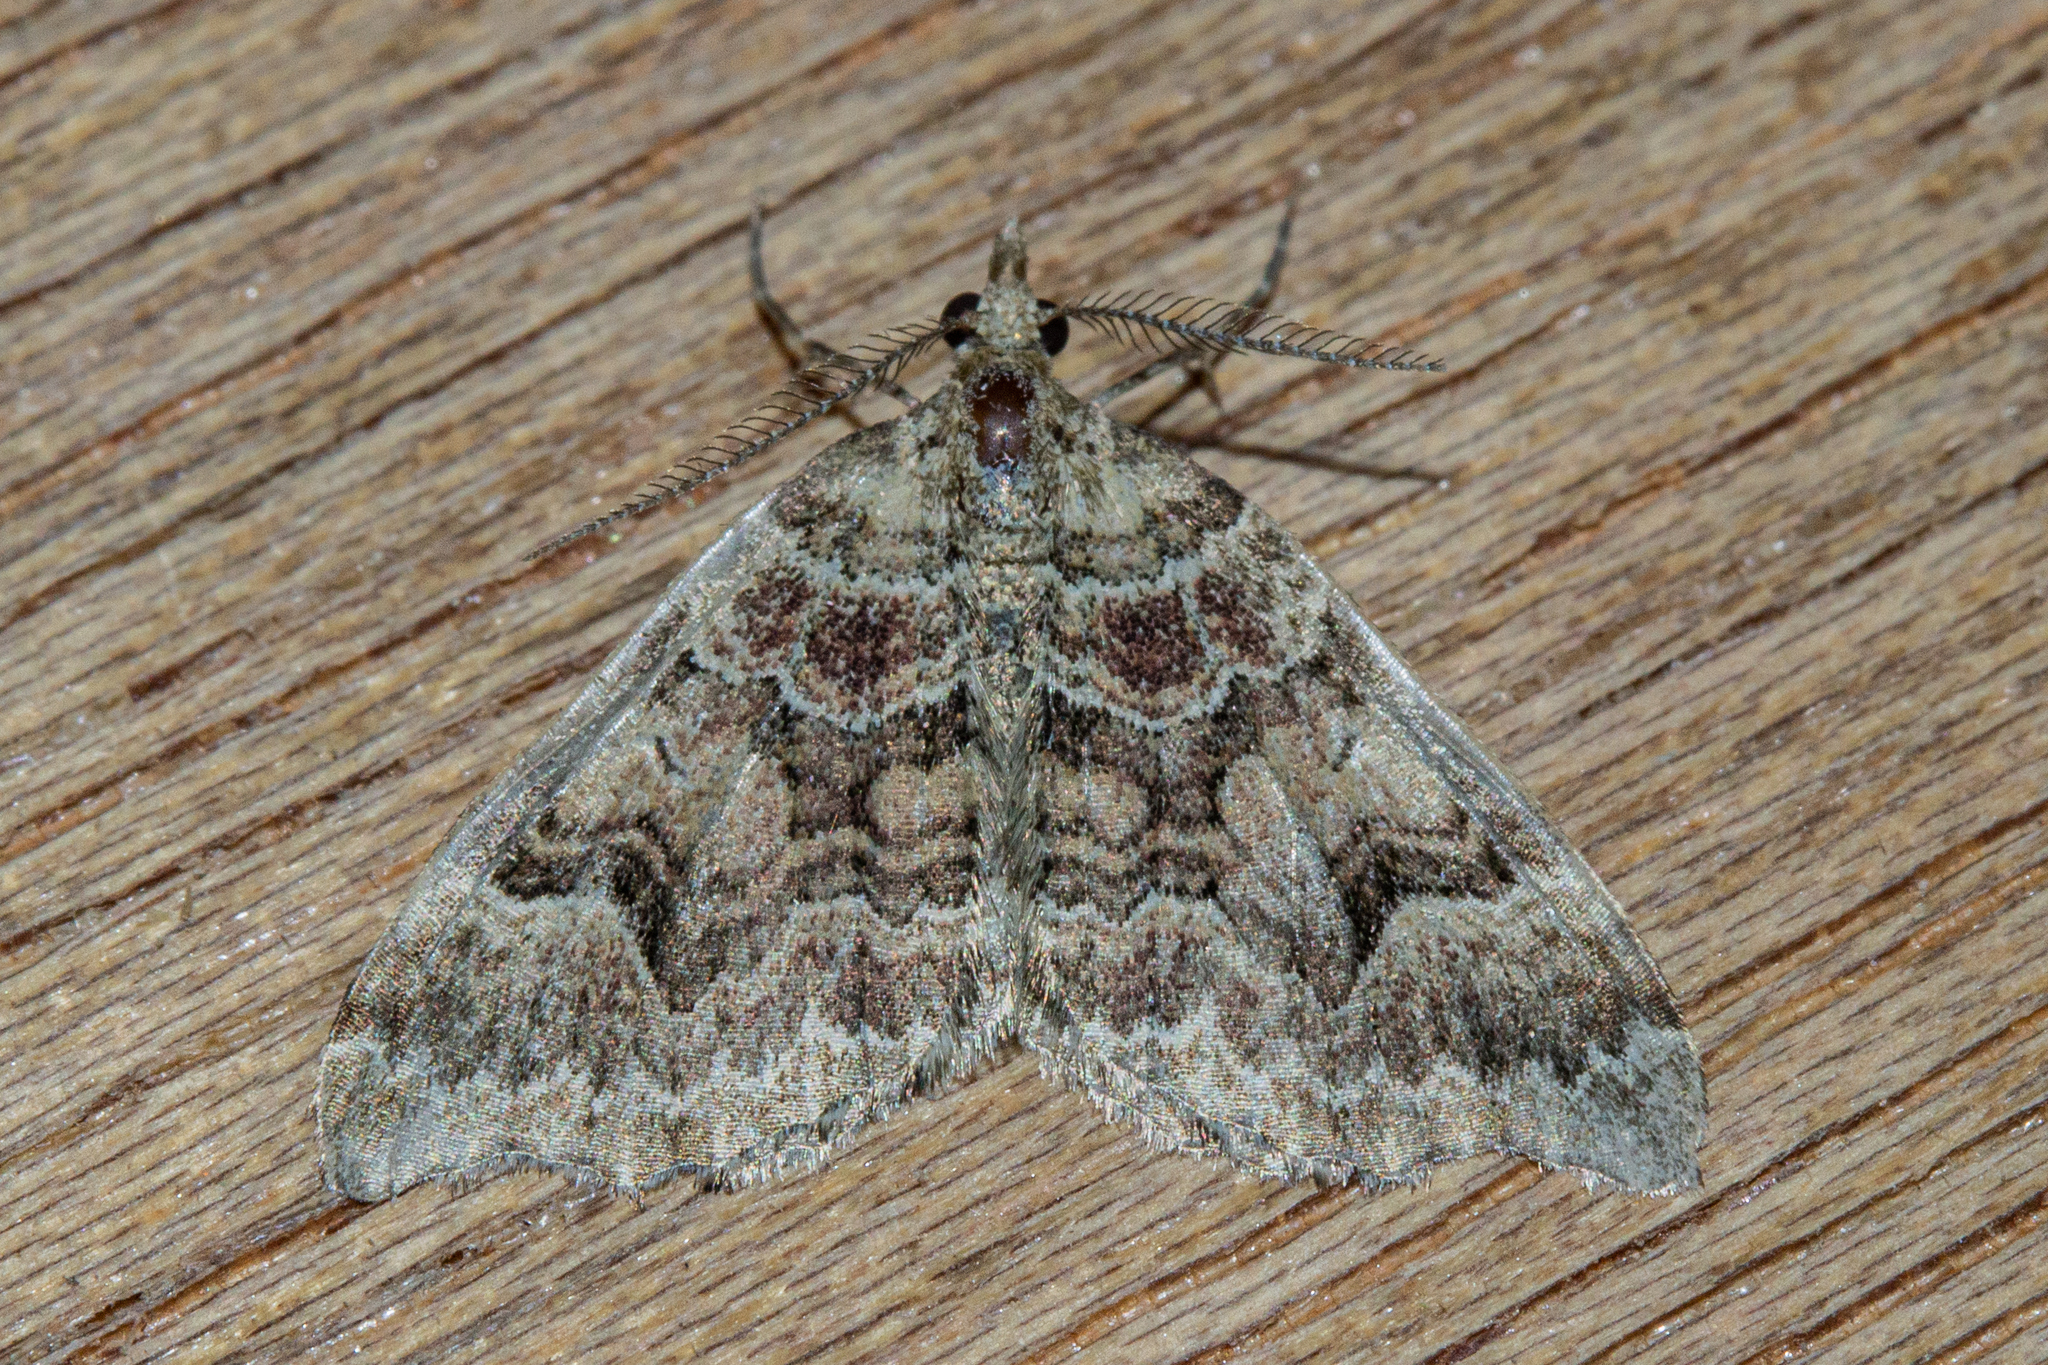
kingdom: Animalia
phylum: Arthropoda
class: Insecta
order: Lepidoptera
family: Geometridae
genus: Helastia
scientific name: Helastia cryptica
